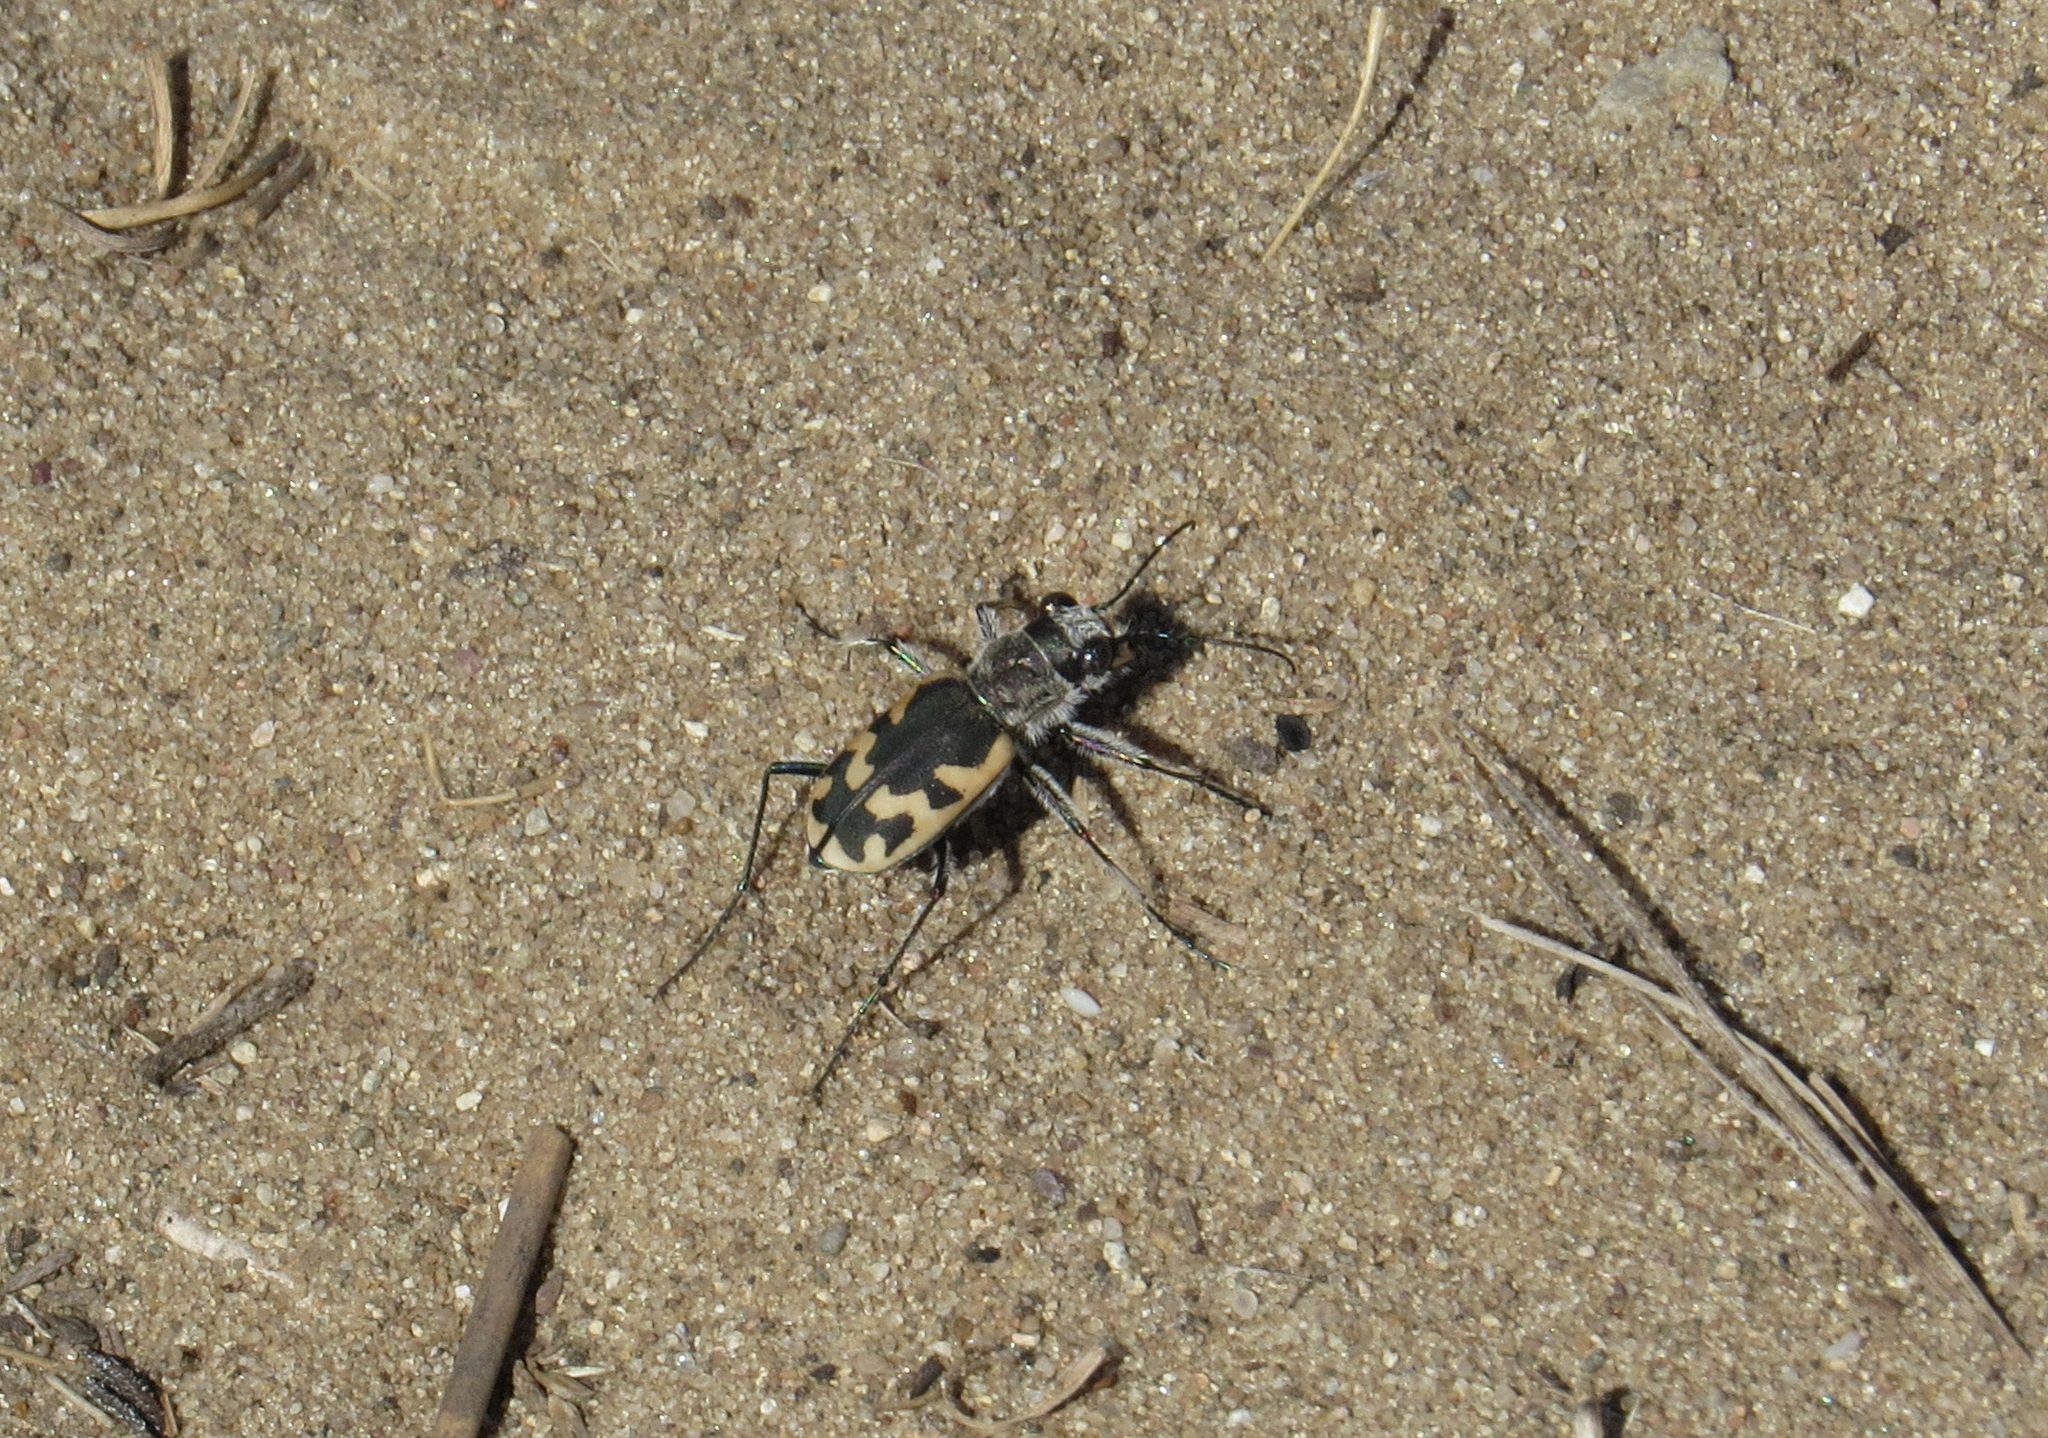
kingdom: Animalia
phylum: Arthropoda
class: Insecta
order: Coleoptera
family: Carabidae
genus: Cicindela
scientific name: Cicindela formosa
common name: Big sand tiger beetle
